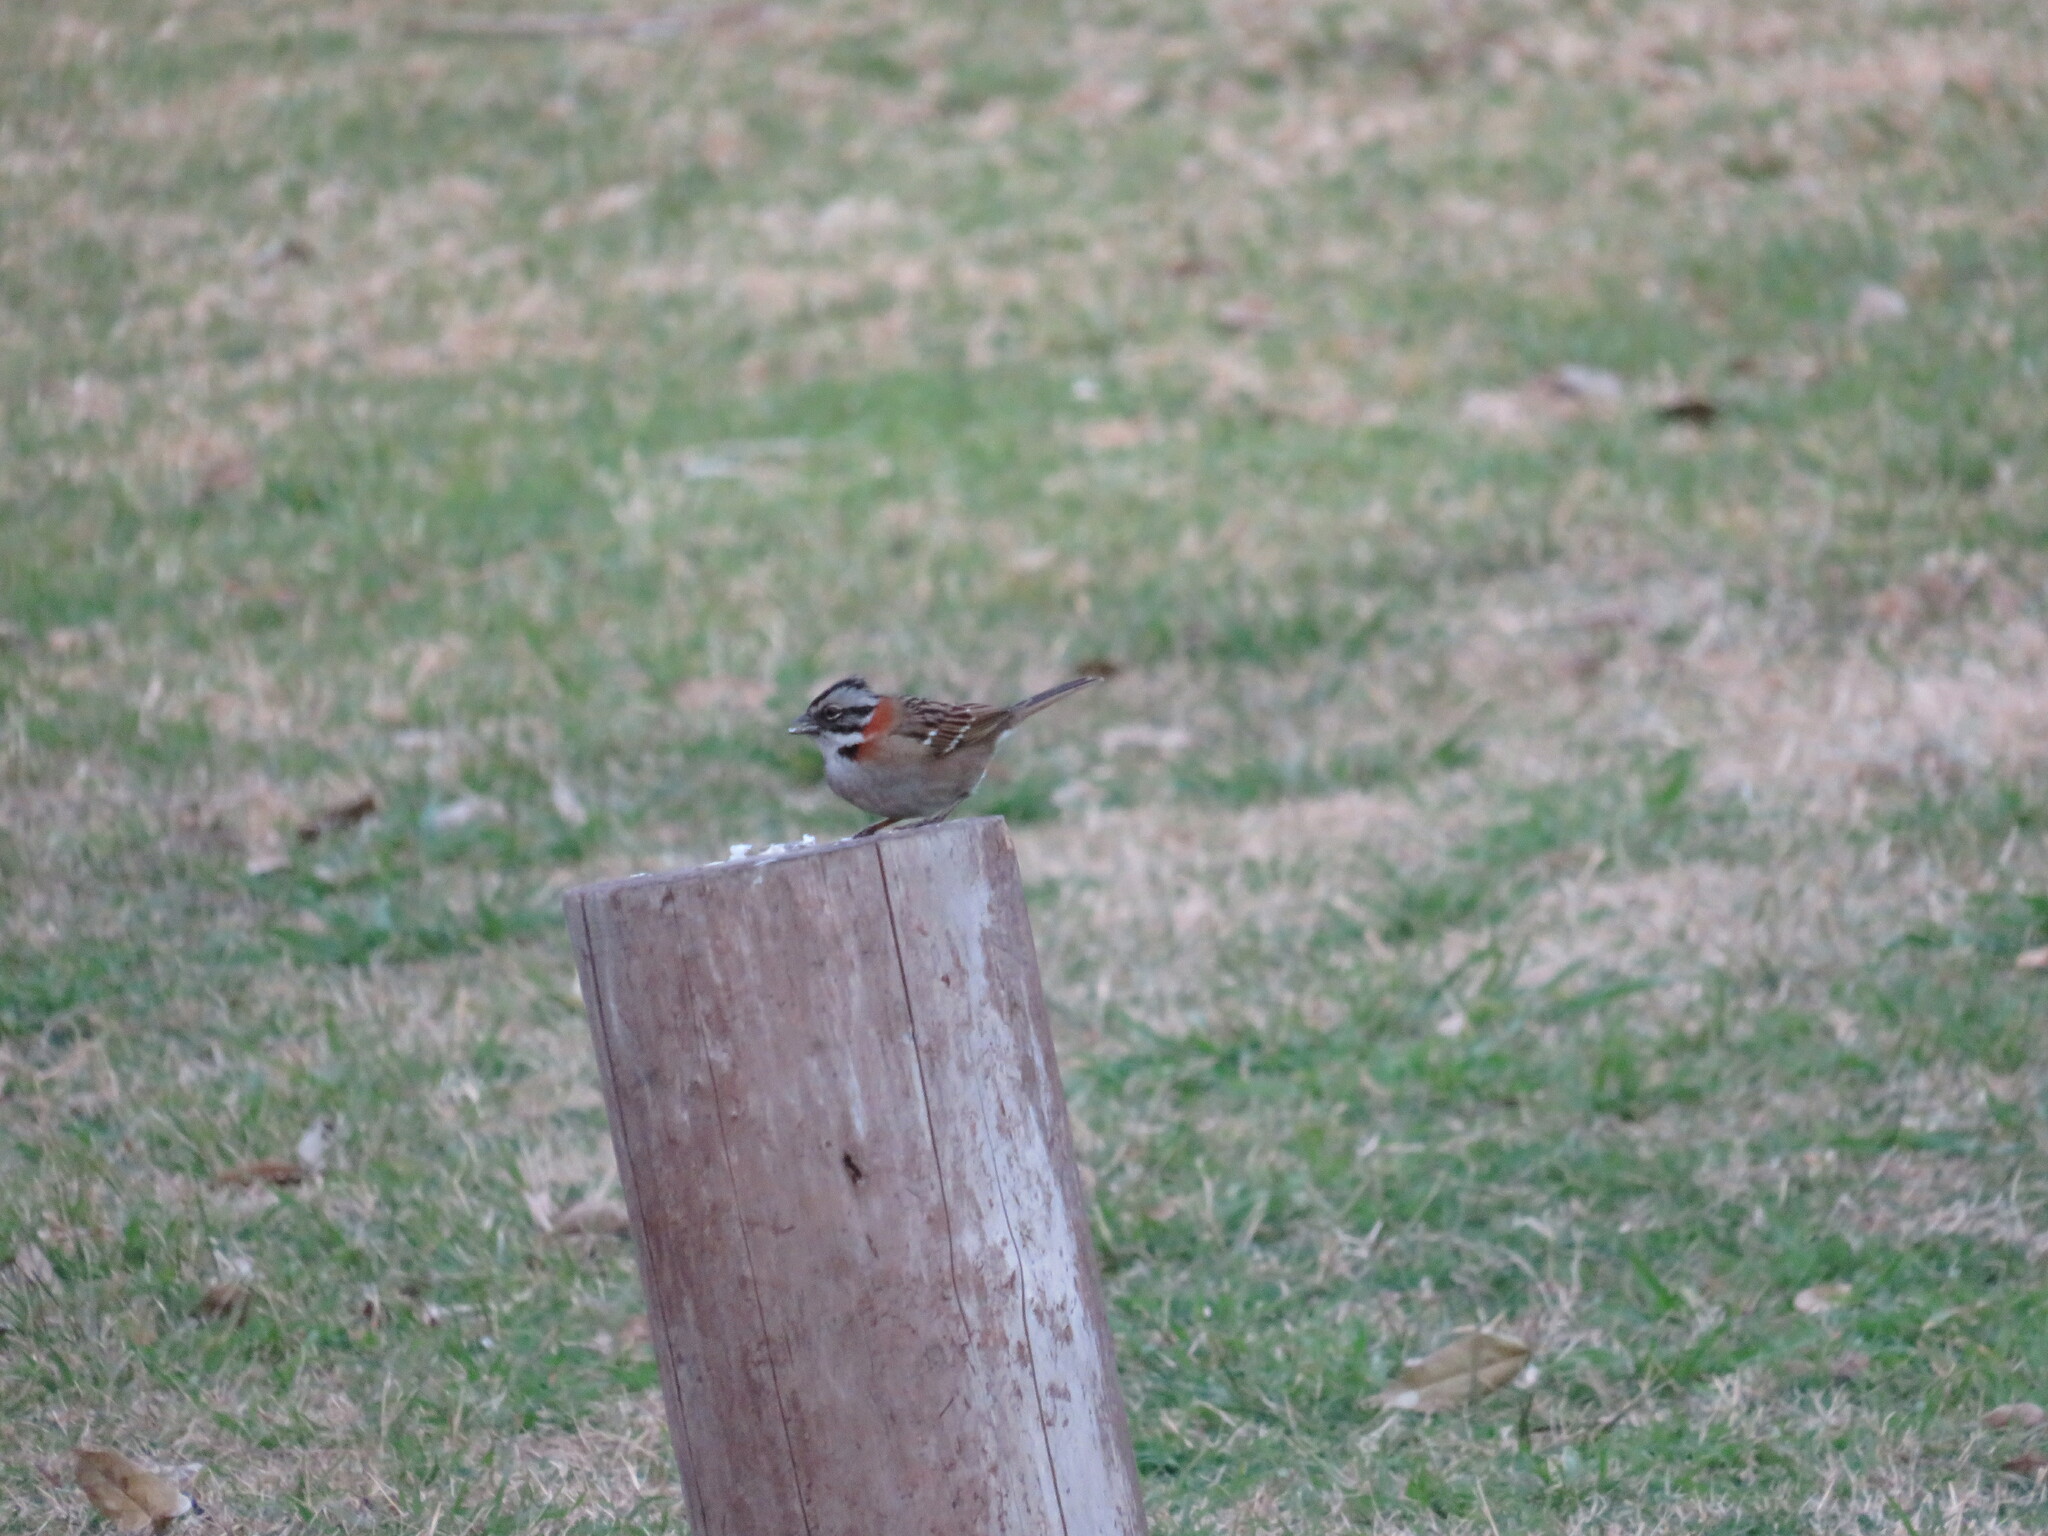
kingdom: Animalia
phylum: Chordata
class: Aves
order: Passeriformes
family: Passerellidae
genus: Zonotrichia
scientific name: Zonotrichia capensis
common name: Rufous-collared sparrow
